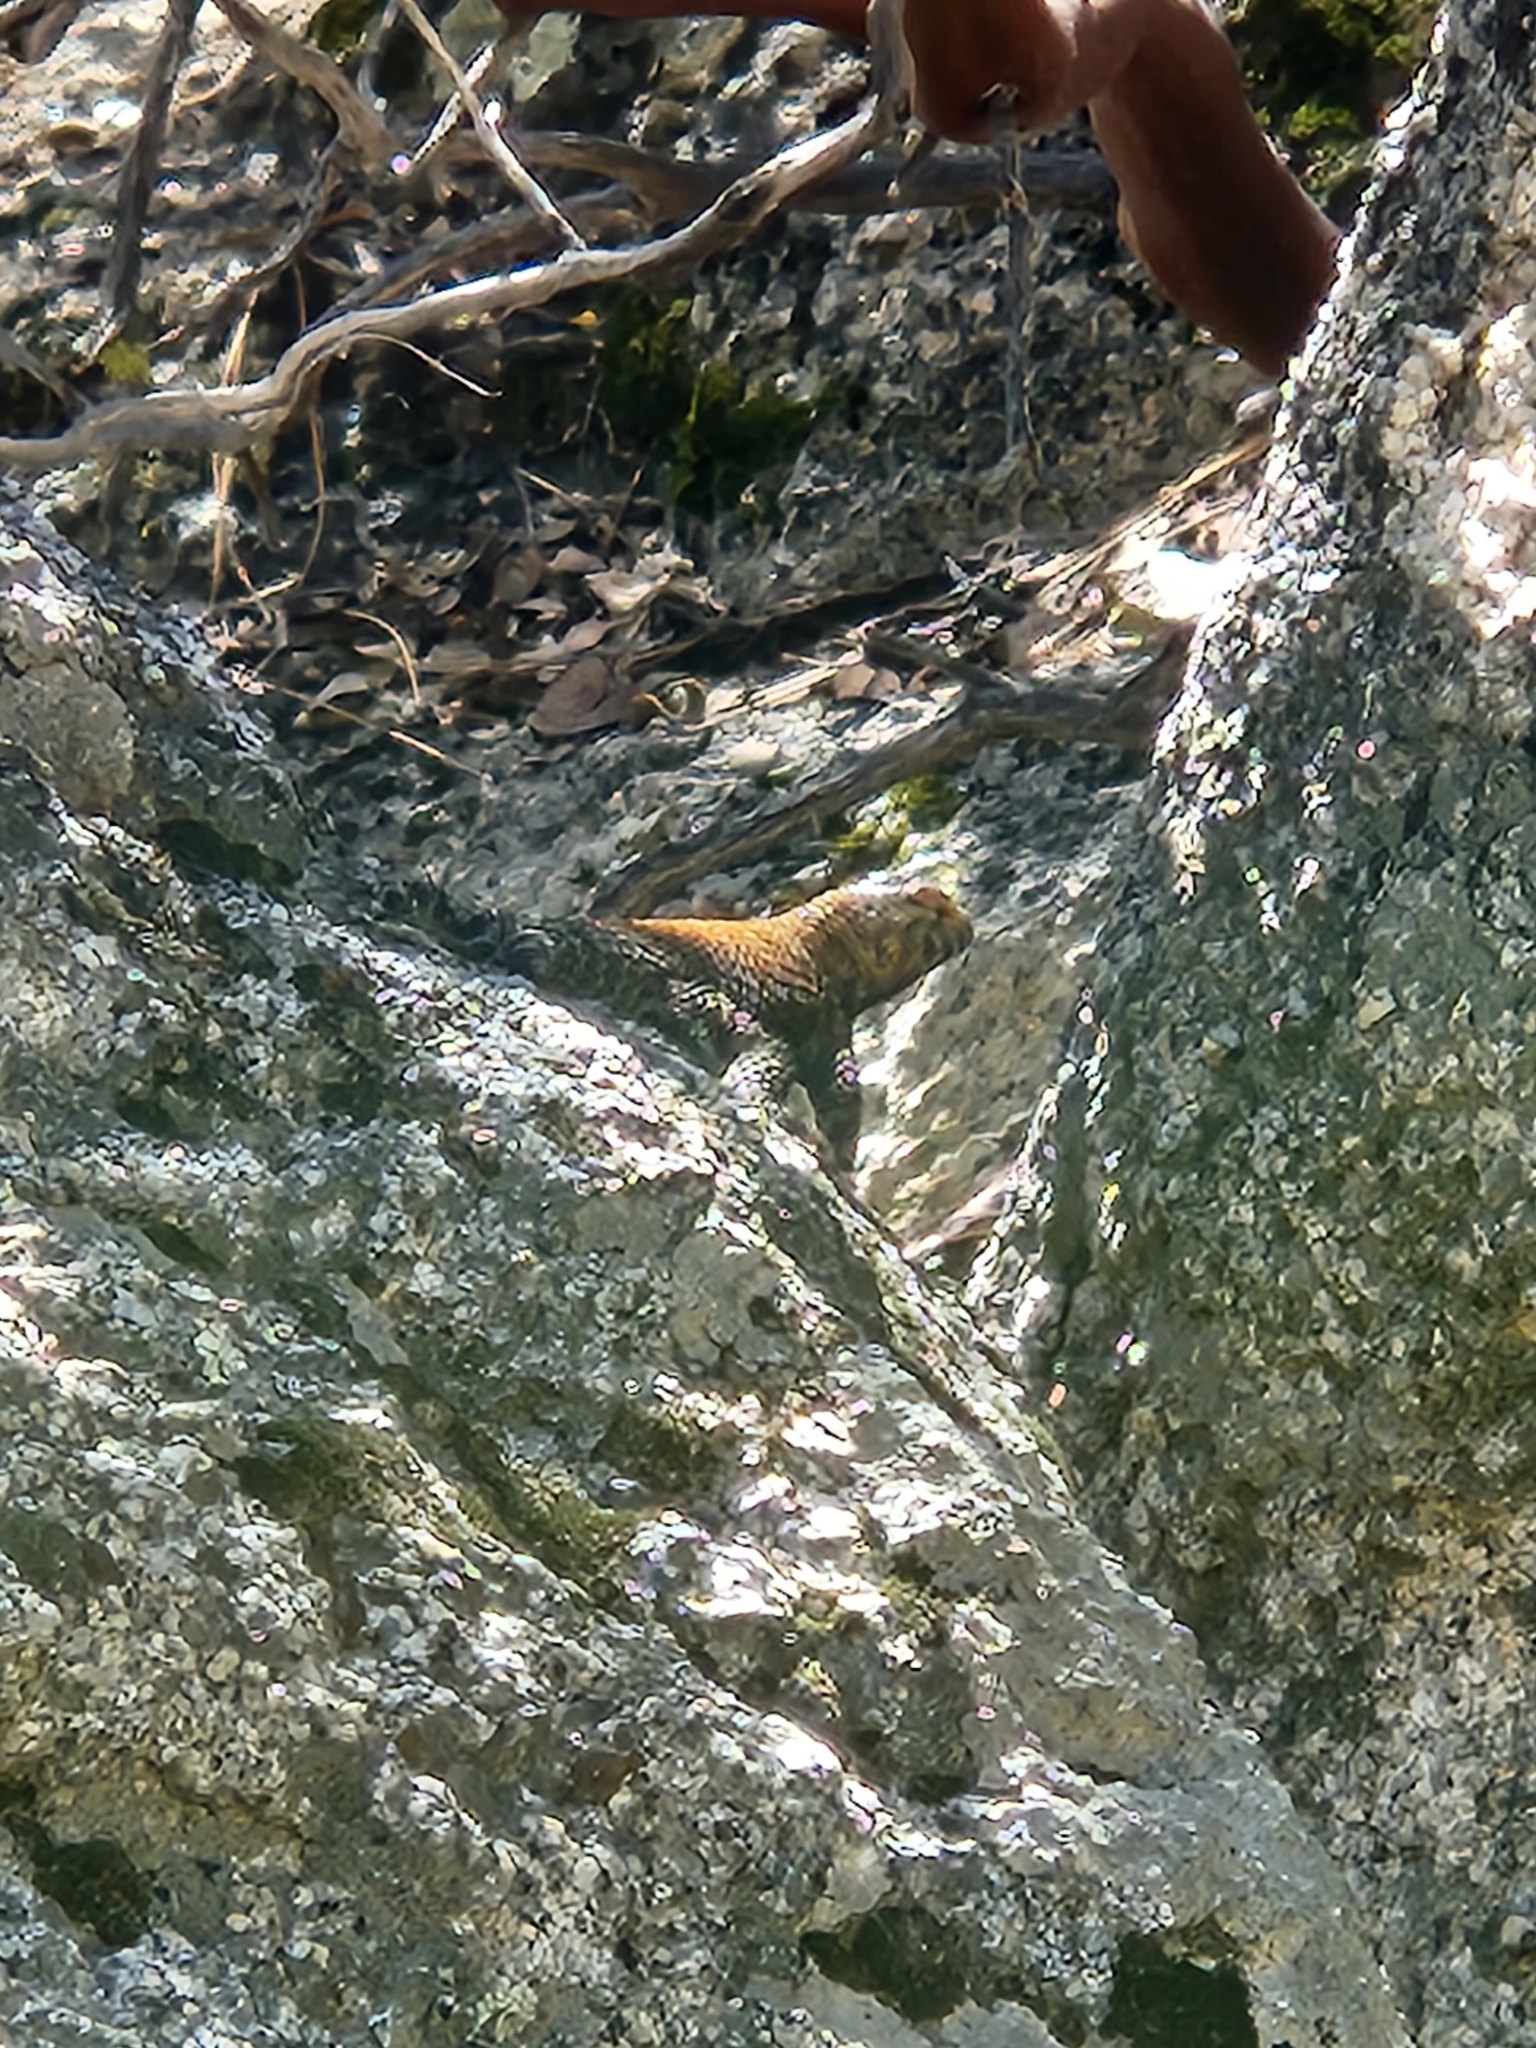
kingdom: Animalia
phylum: Chordata
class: Squamata
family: Phrynosomatidae
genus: Sceloporus
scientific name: Sceloporus orcutti
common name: Granite spiny lizard
